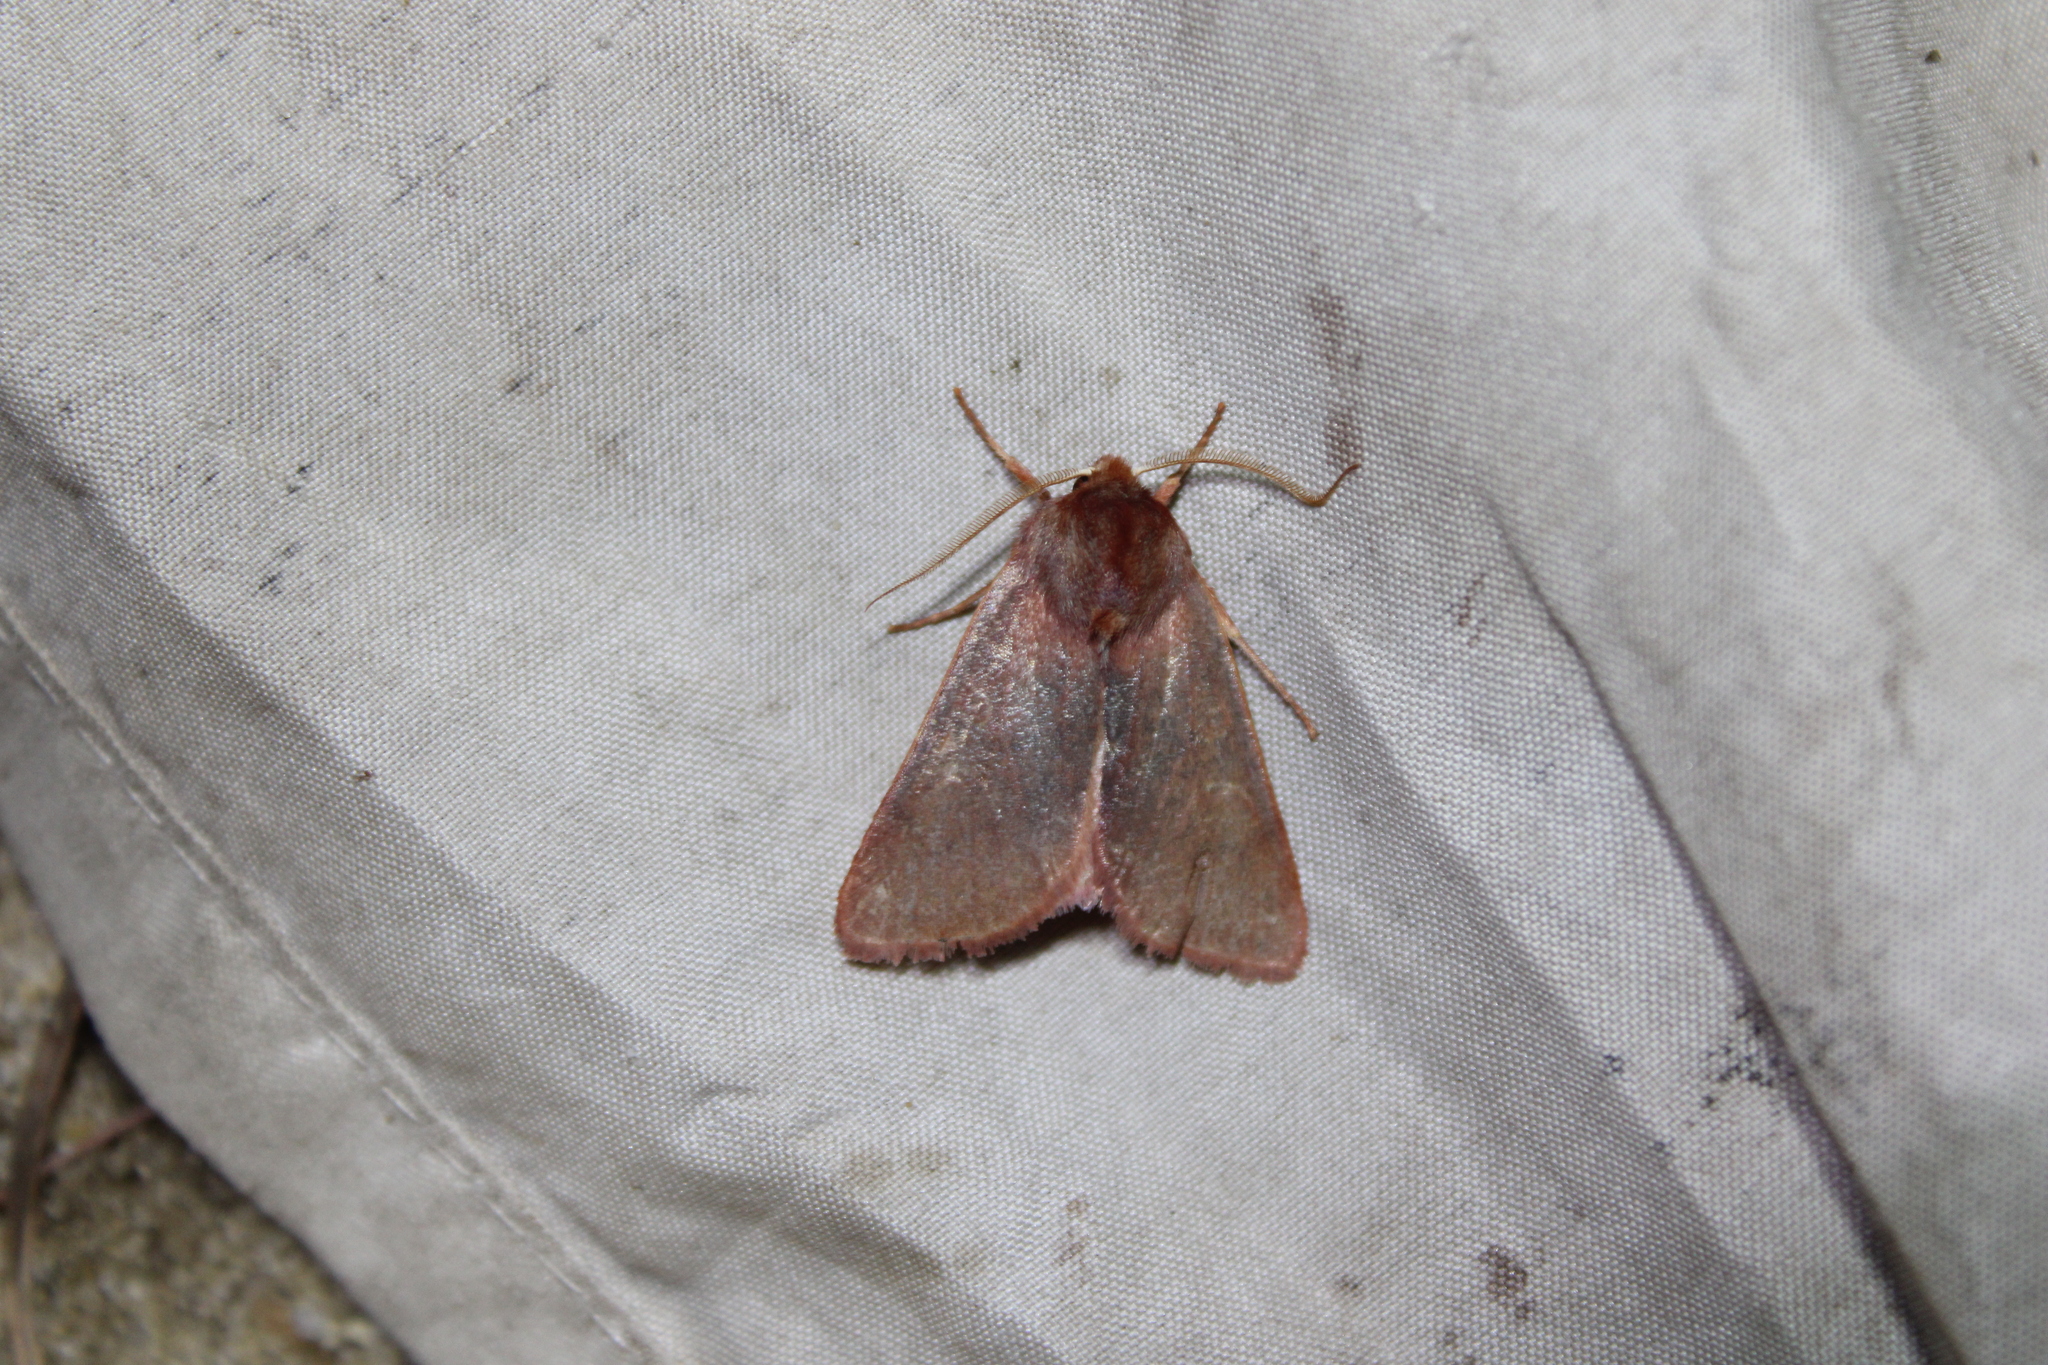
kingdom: Animalia
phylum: Arthropoda
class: Insecta
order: Lepidoptera
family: Noctuidae
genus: Psectraglaea
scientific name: Psectraglaea carnosa
